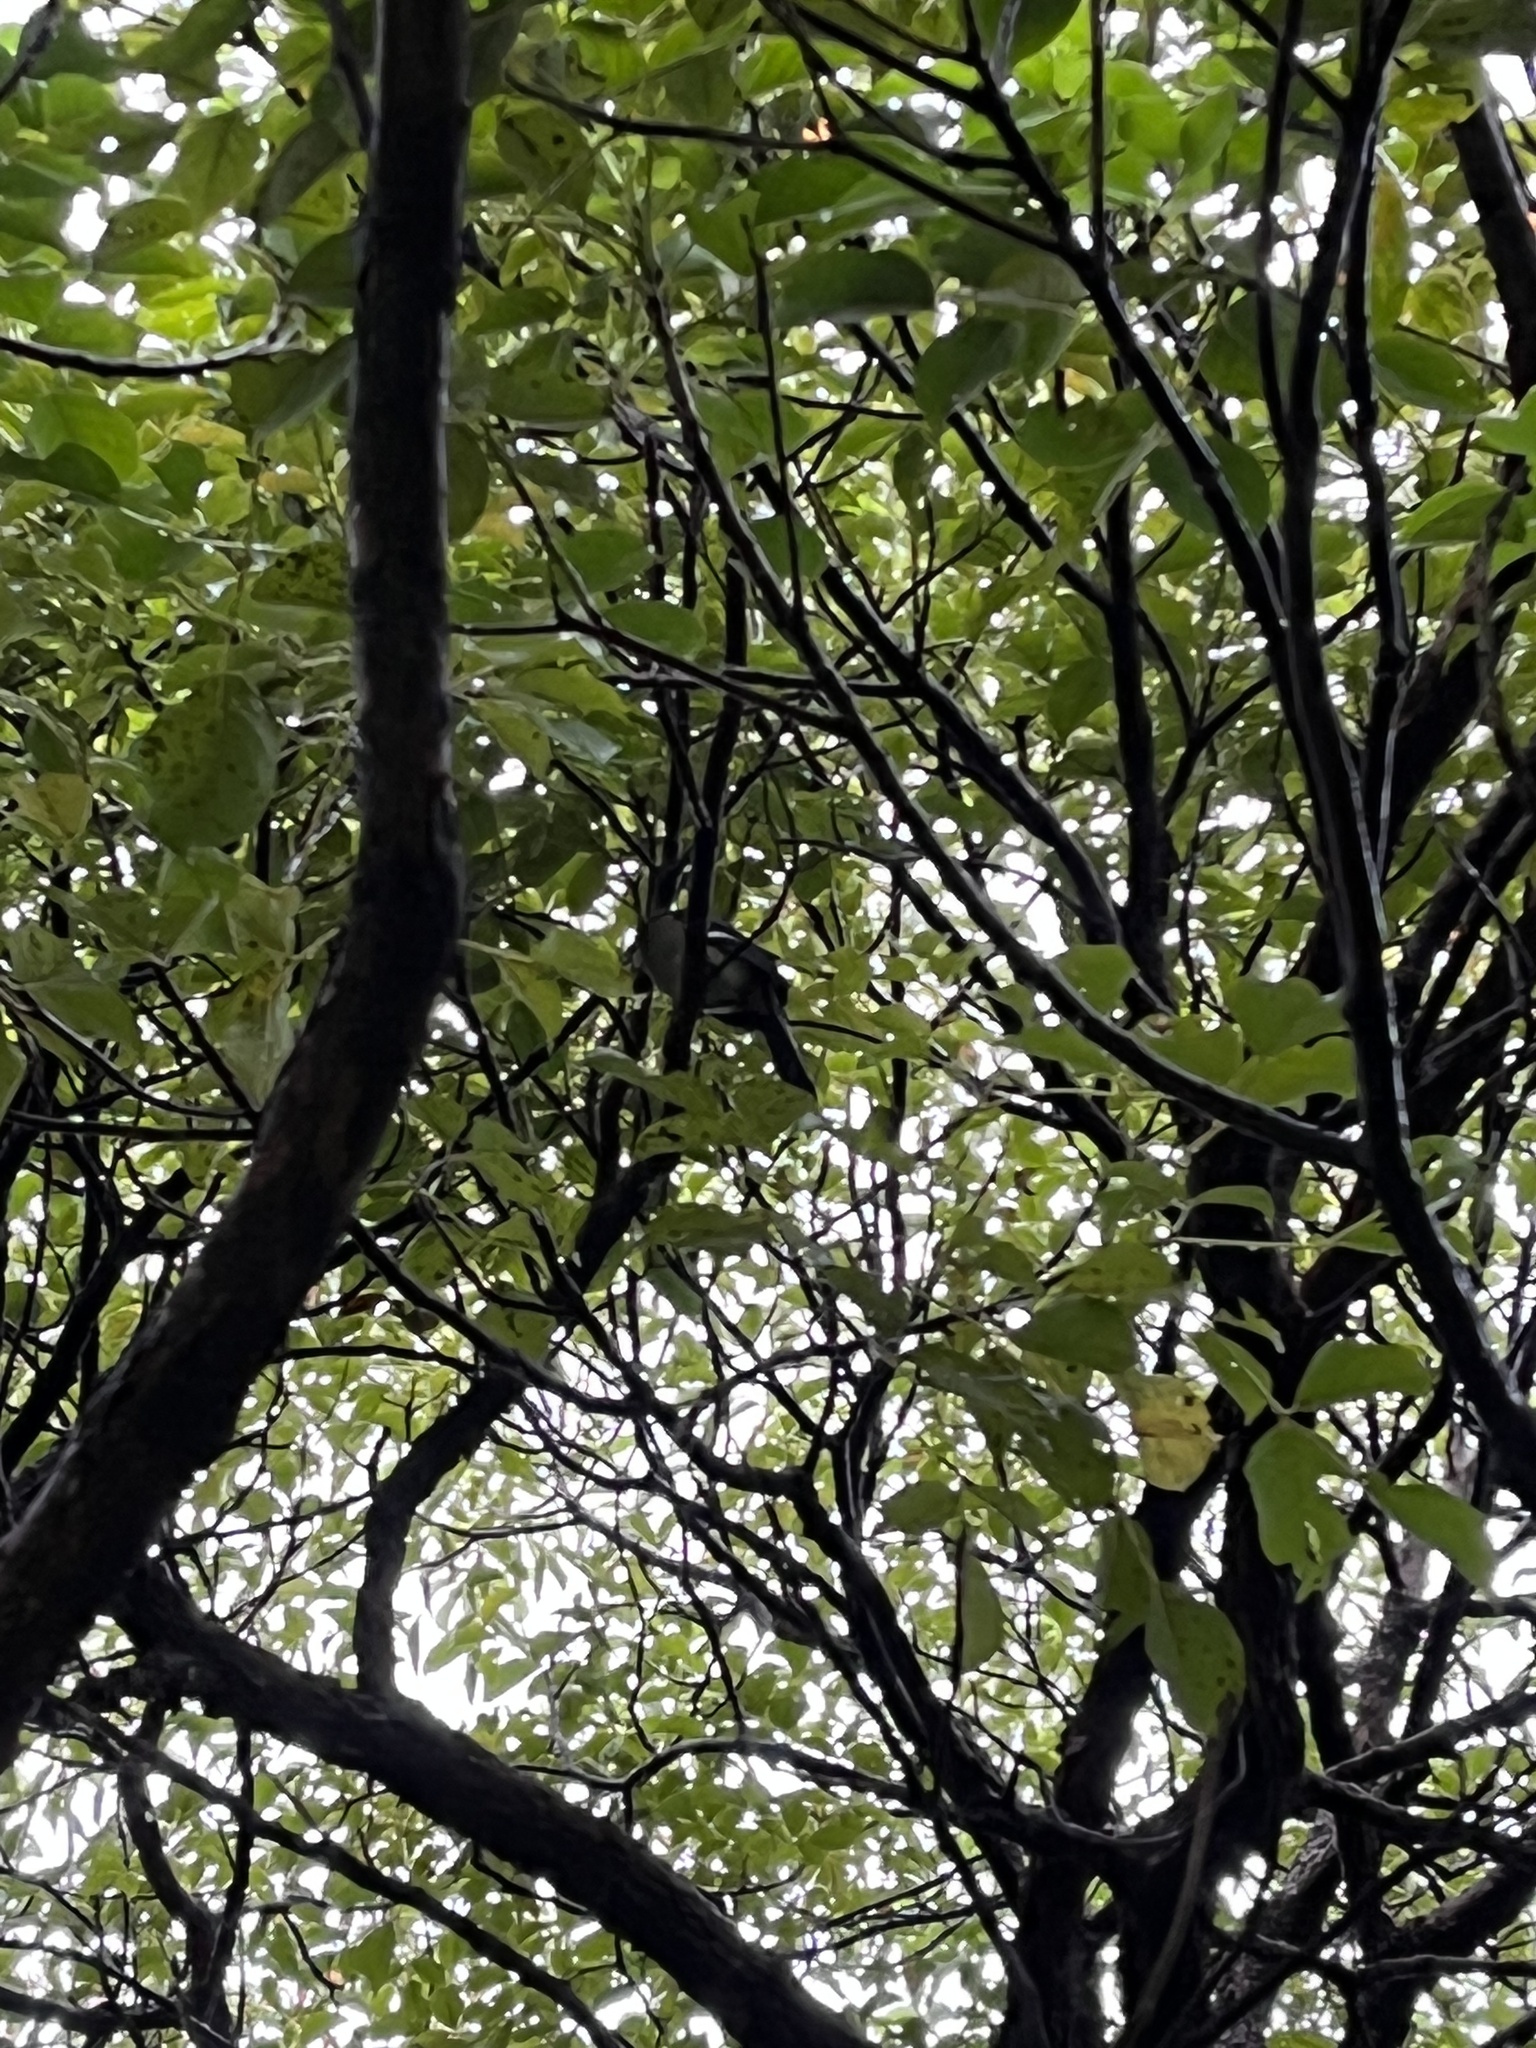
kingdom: Animalia
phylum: Chordata
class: Aves
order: Passeriformes
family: Corvidae
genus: Dendrocitta
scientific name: Dendrocitta formosae
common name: Grey treepie
